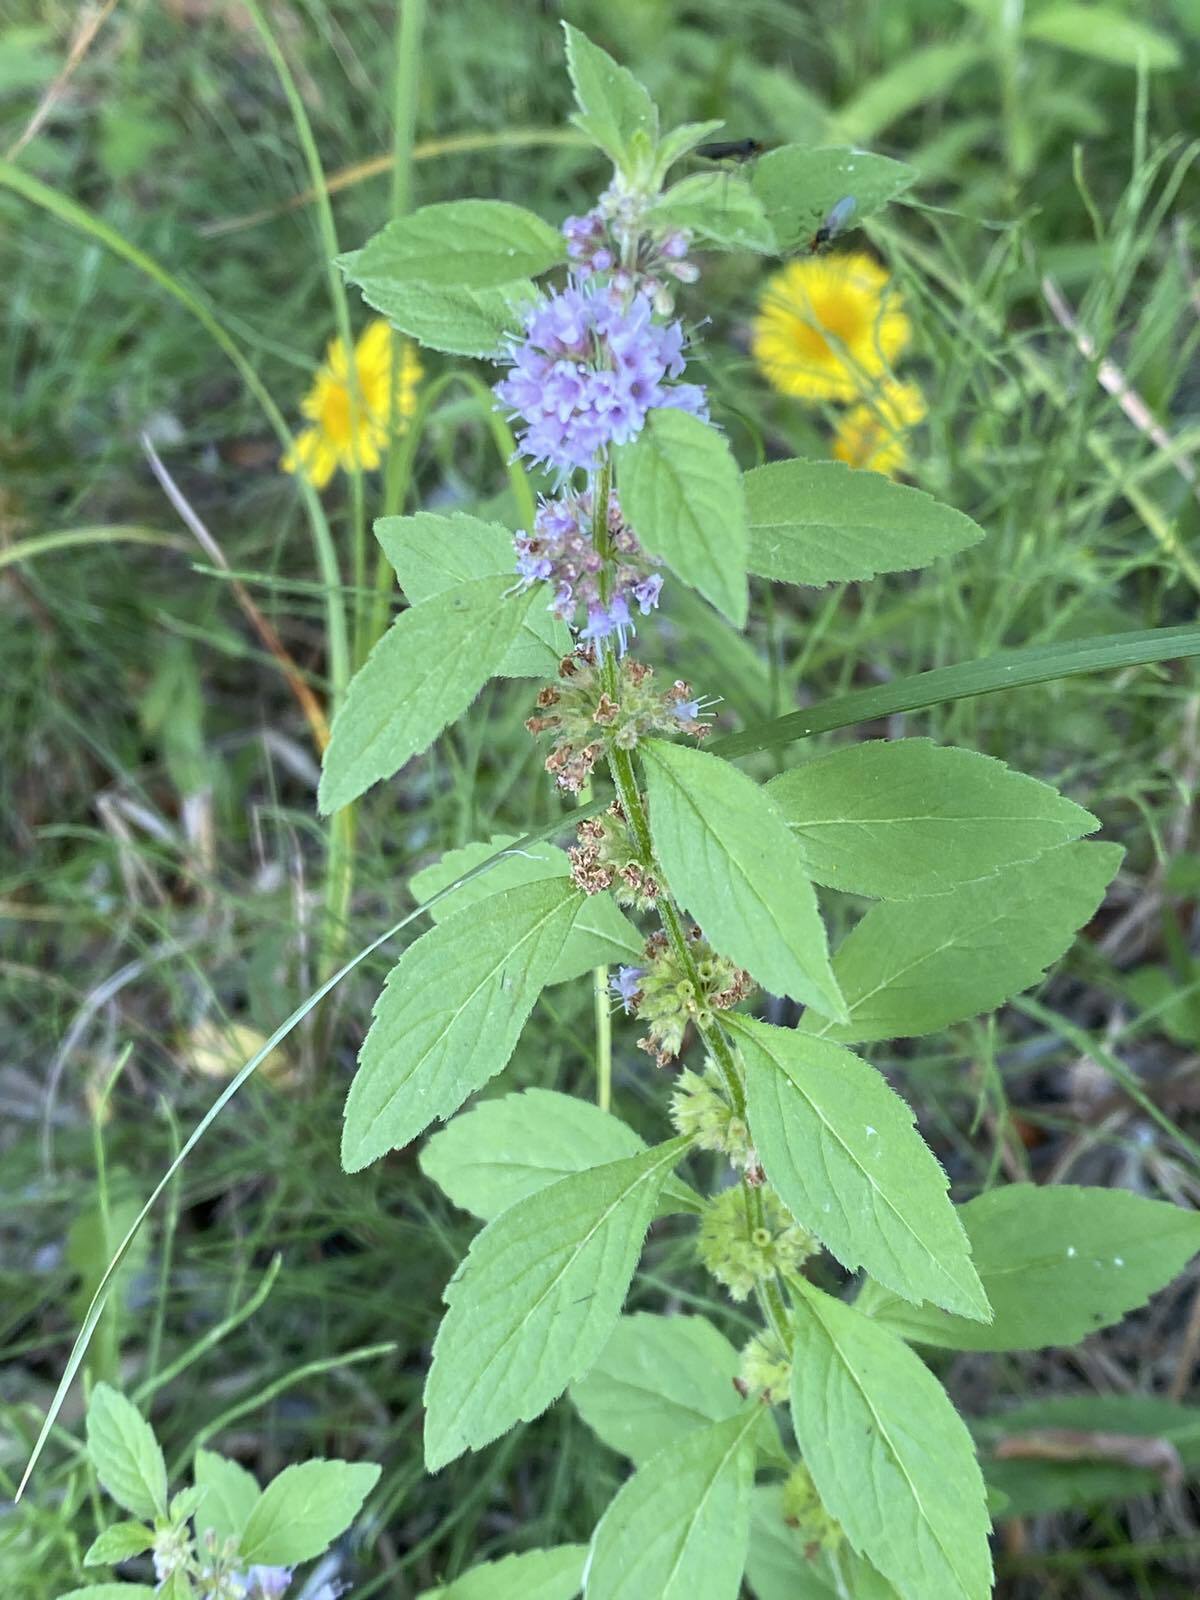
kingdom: Plantae
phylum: Tracheophyta
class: Magnoliopsida
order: Lamiales
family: Lamiaceae
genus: Mentha
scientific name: Mentha arvensis
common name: Corn mint
